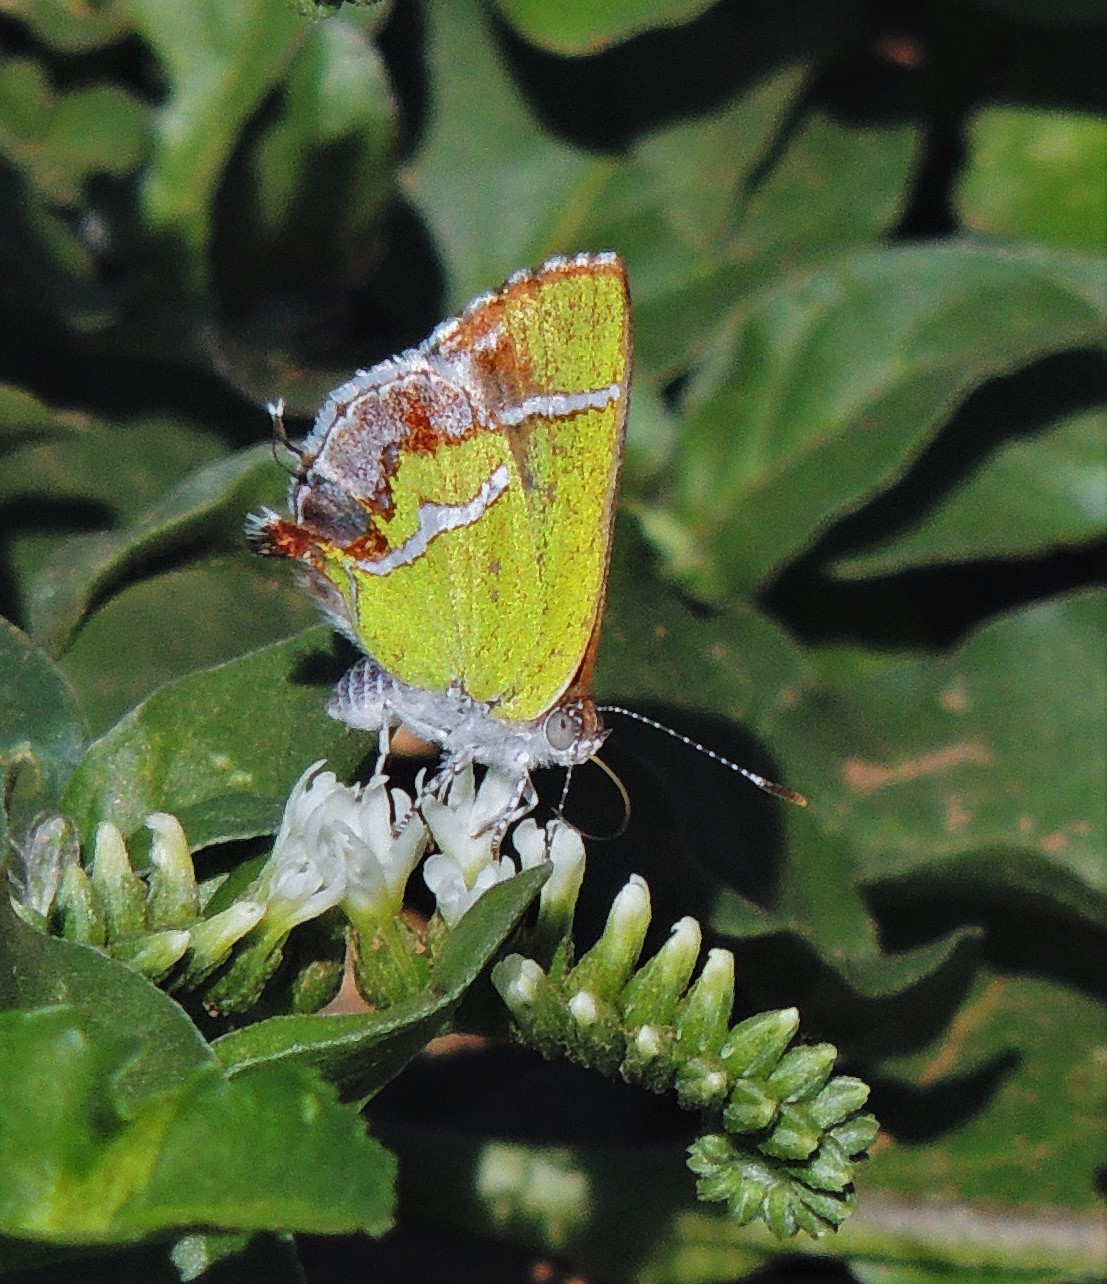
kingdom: Animalia
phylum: Arthropoda
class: Insecta
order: Lepidoptera
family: Lycaenidae
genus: Chlorostrymon
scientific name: Chlorostrymon simaethis
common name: Silver-banded hairstreak
